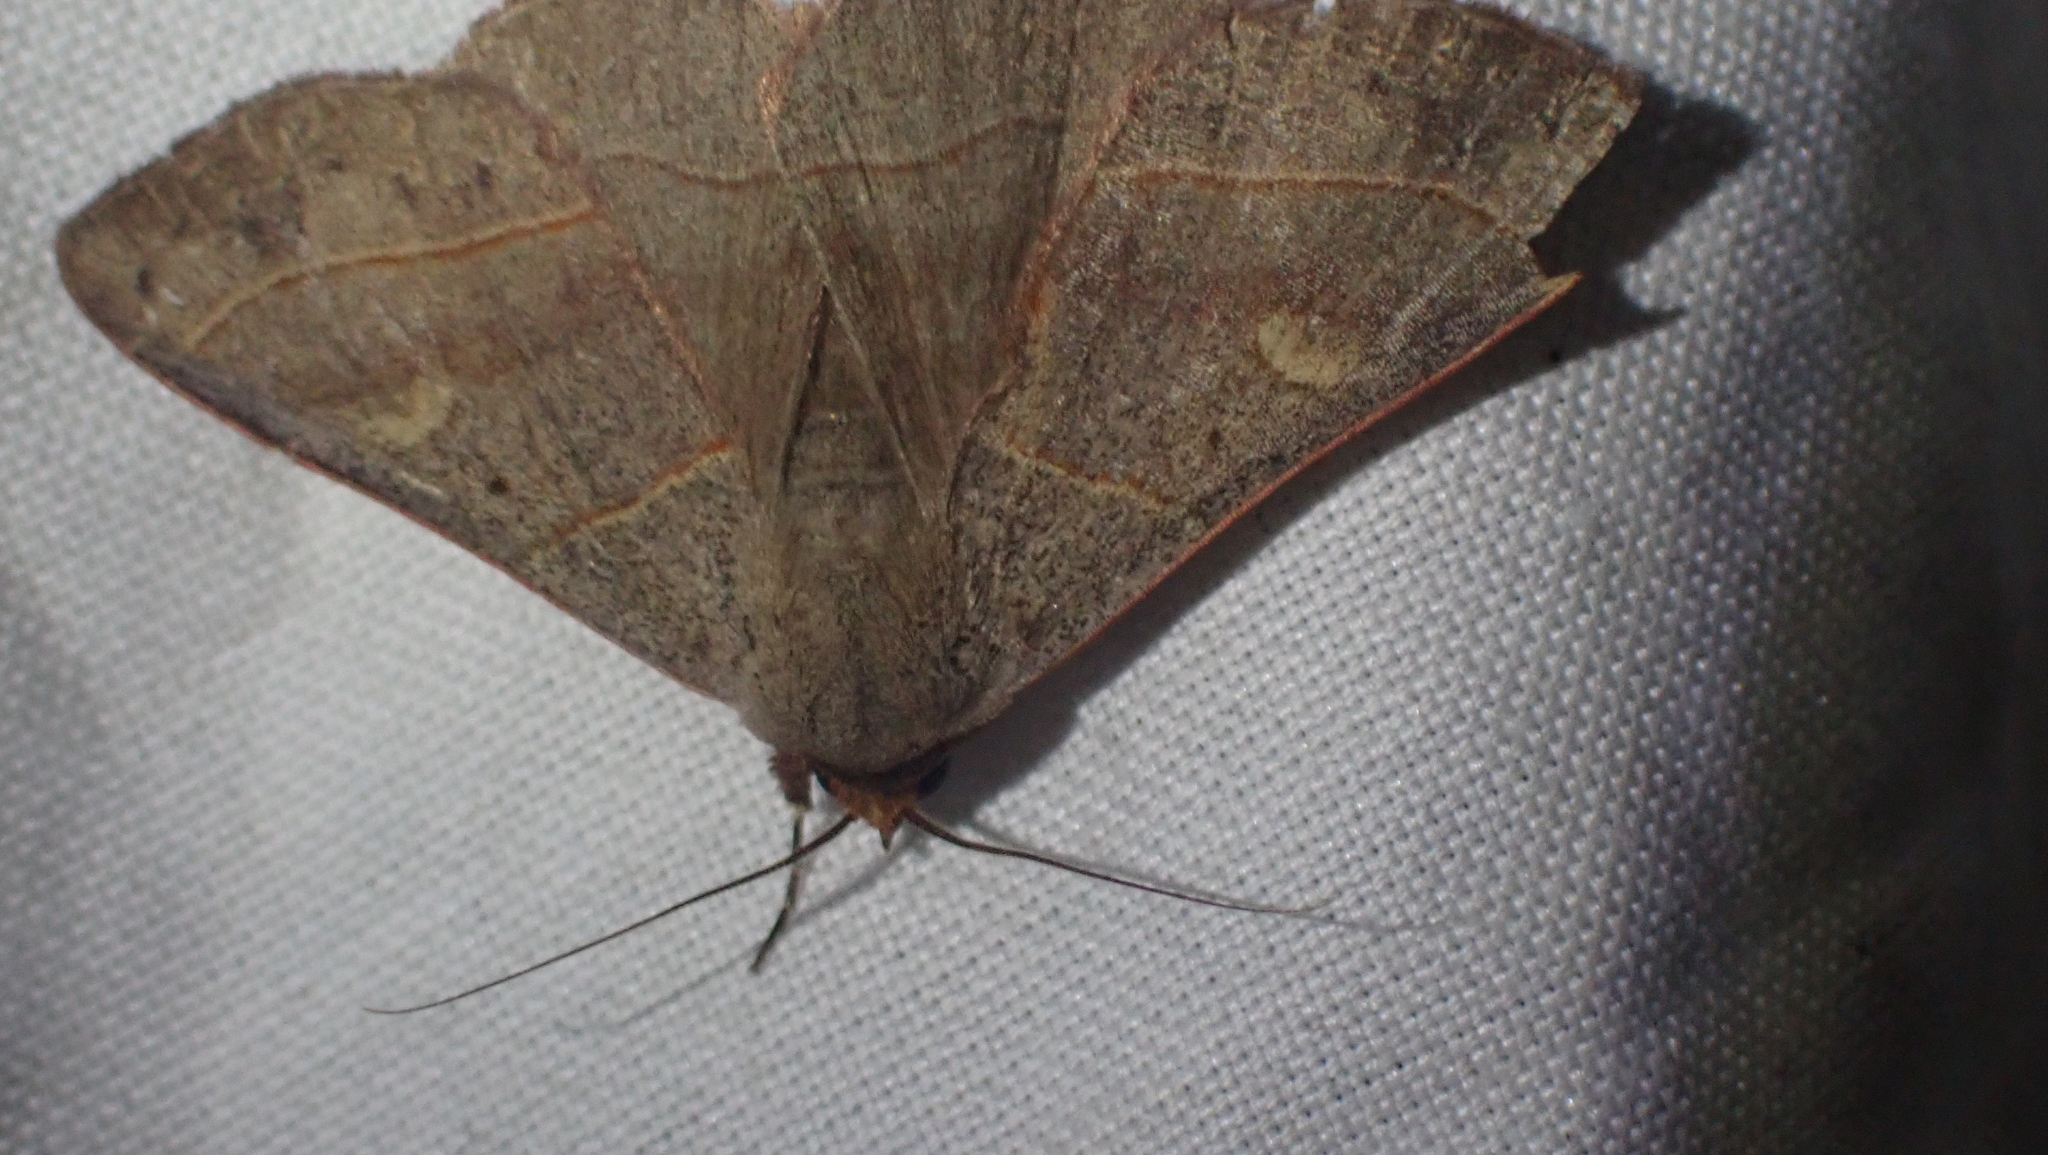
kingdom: Animalia
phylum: Arthropoda
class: Insecta
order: Lepidoptera
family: Erebidae
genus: Panopoda
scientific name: Panopoda rufimargo
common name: Red-lined panopoda moth
